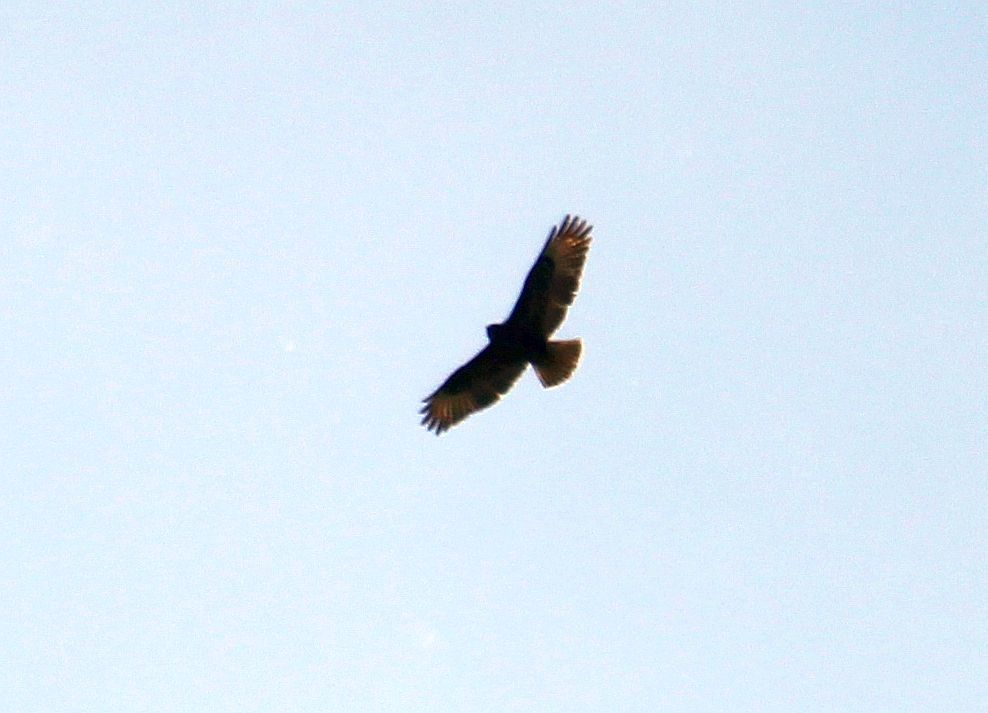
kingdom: Animalia
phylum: Chordata
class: Aves
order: Accipitriformes
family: Accipitridae
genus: Buteo
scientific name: Buteo buteo
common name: Common buzzard
